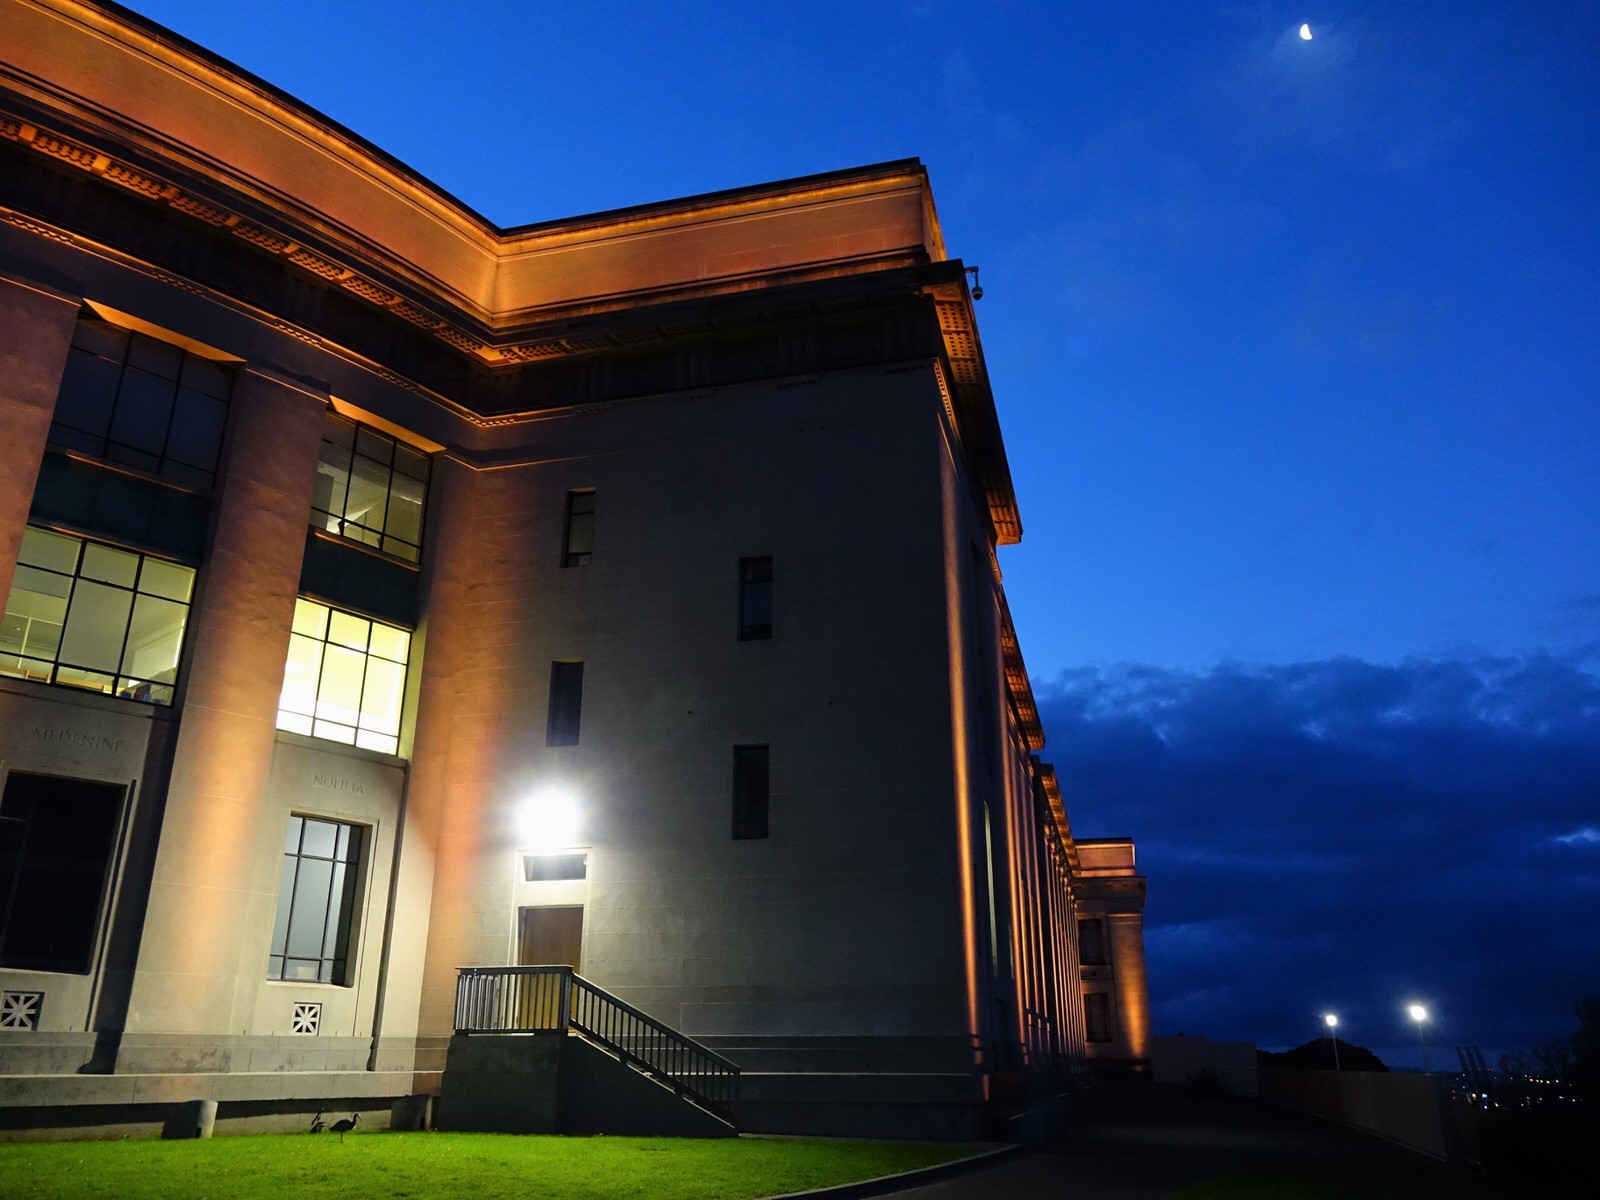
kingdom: Animalia
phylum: Chordata
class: Aves
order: Pelecaniformes
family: Ardeidae
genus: Egretta
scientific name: Egretta novaehollandiae
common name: White-faced heron
